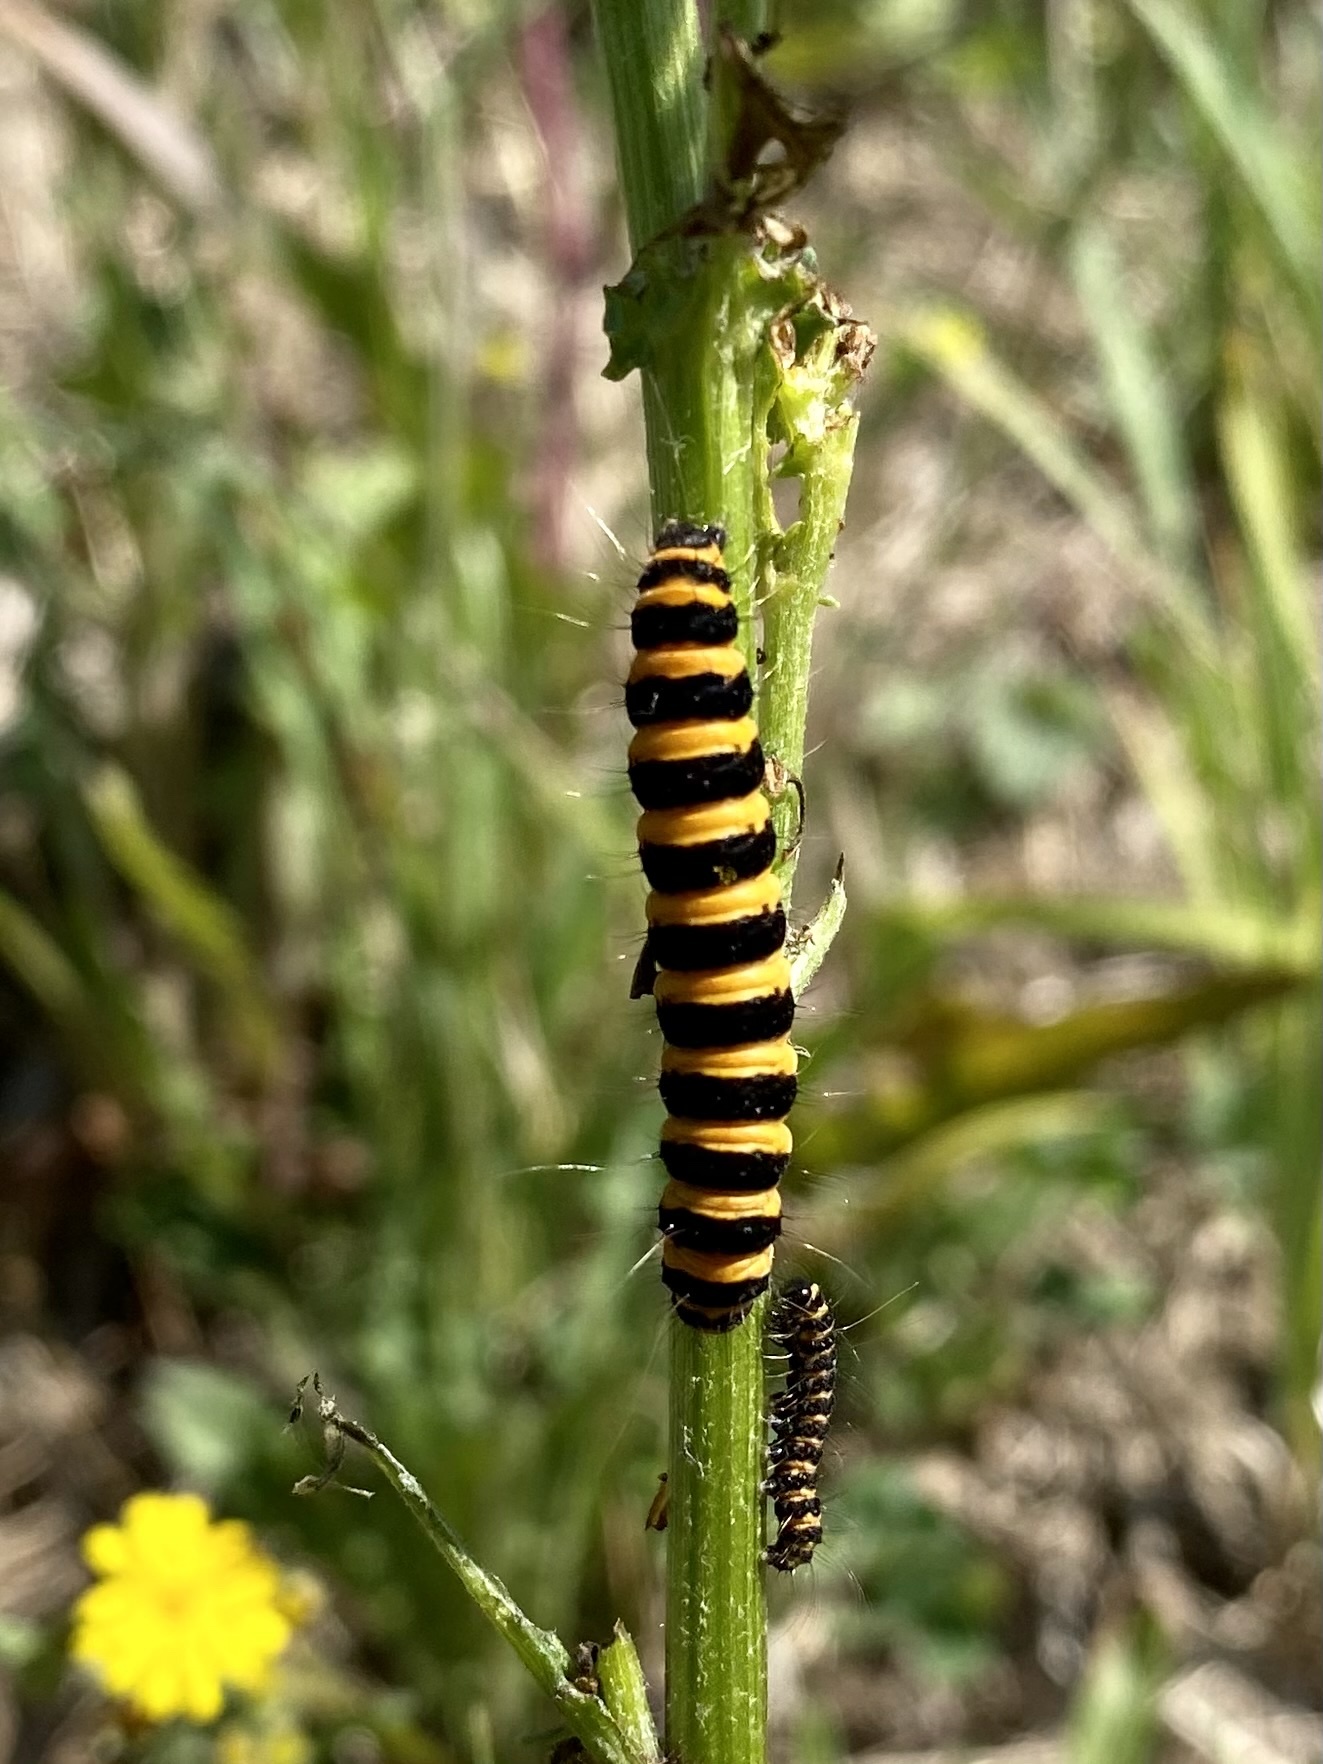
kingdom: Animalia
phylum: Arthropoda
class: Insecta
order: Lepidoptera
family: Erebidae
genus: Tyria
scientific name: Tyria jacobaeae
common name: Cinnabar
